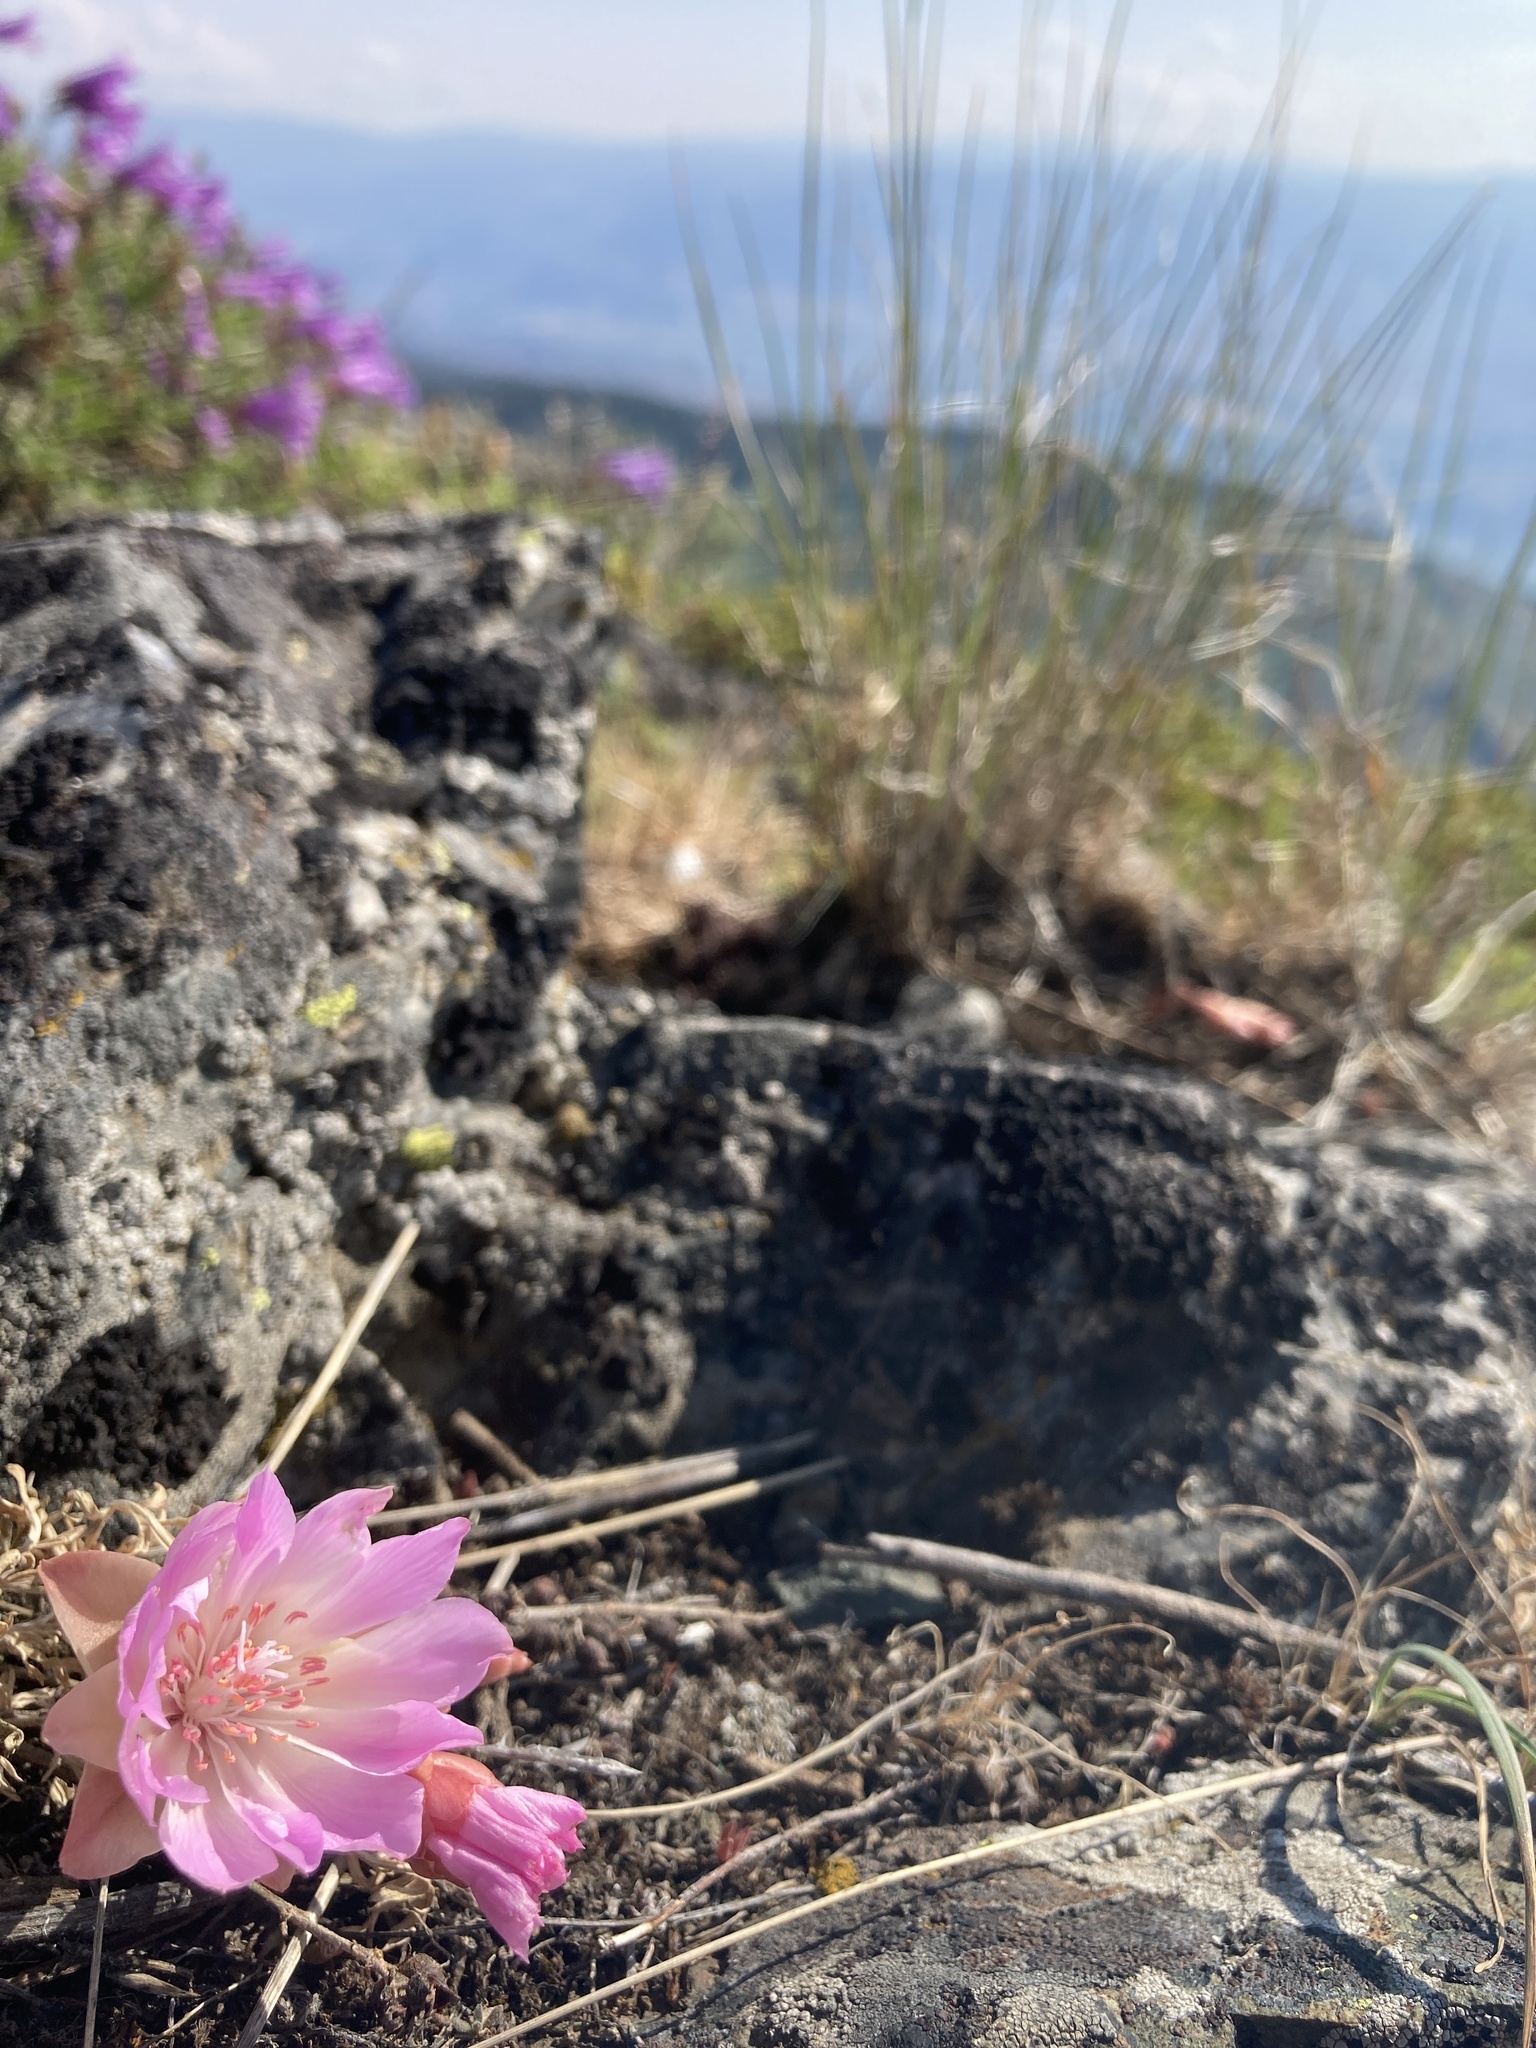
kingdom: Plantae
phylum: Tracheophyta
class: Magnoliopsida
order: Caryophyllales
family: Montiaceae
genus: Lewisia
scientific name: Lewisia rediviva
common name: Bitter-root
